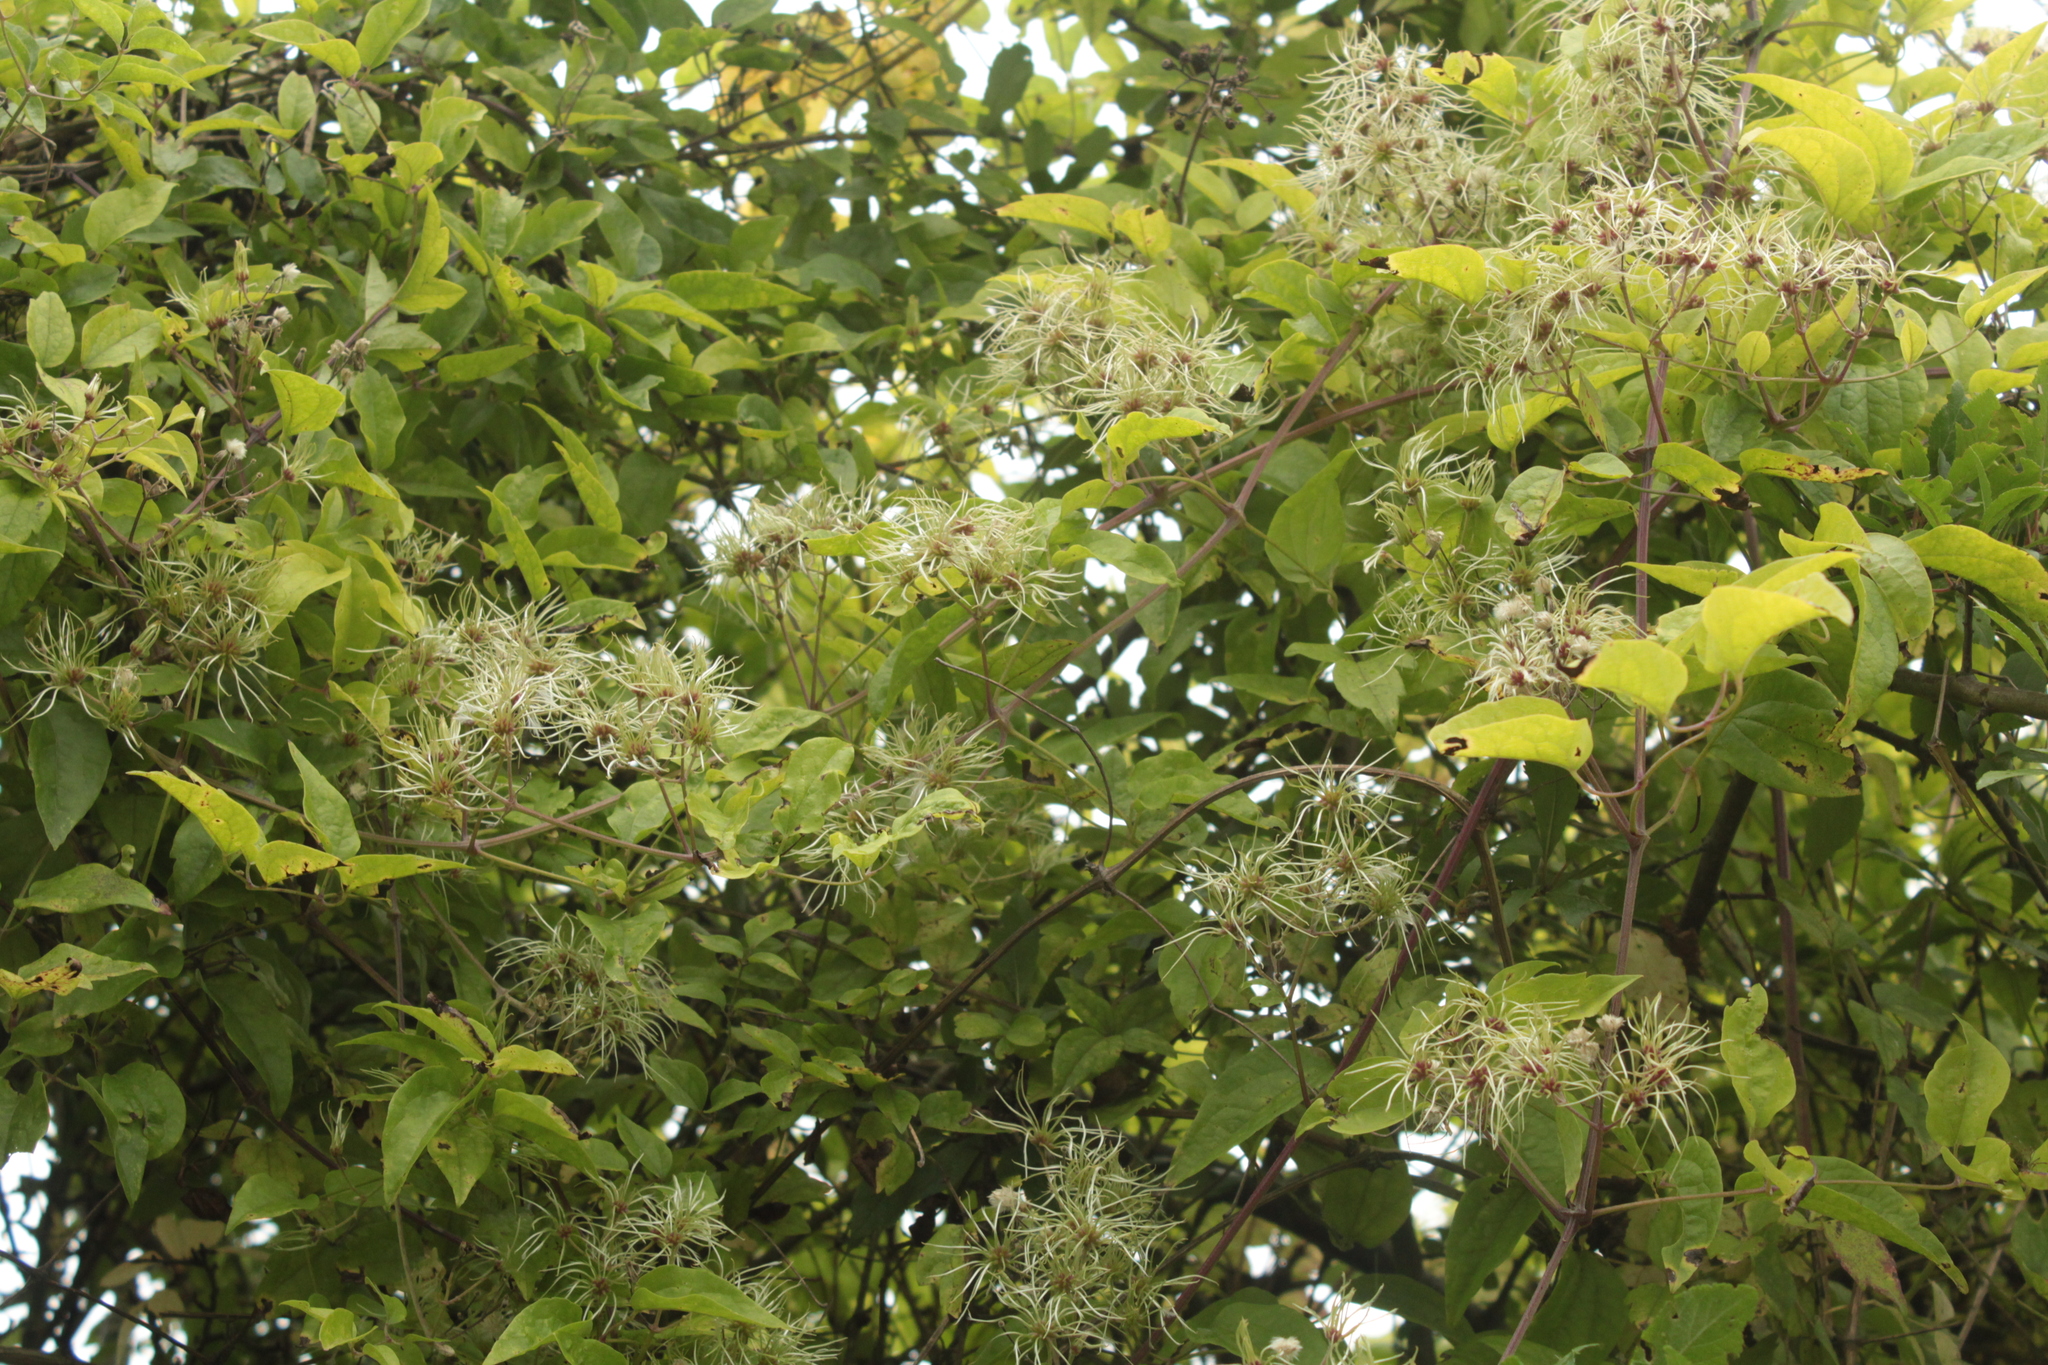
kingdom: Plantae
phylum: Tracheophyta
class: Magnoliopsida
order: Ranunculales
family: Ranunculaceae
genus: Clematis
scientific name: Clematis vitalba
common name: Evergreen clematis
